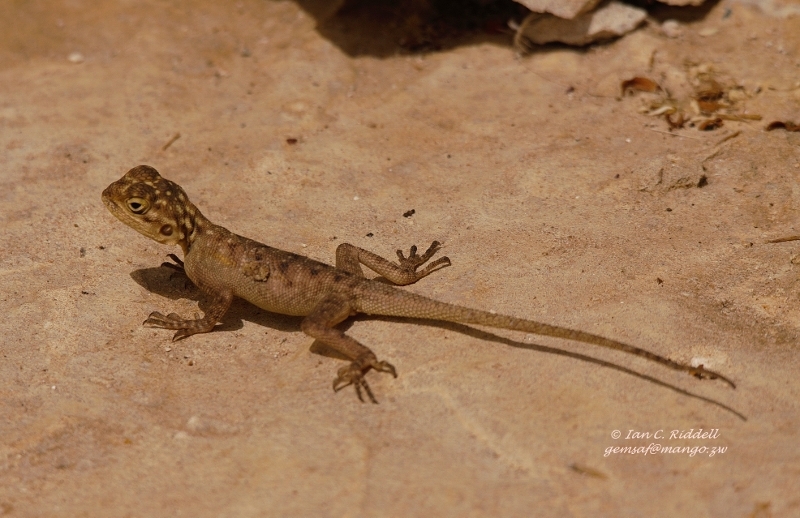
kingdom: Animalia
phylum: Chordata
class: Squamata
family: Agamidae
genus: Agama
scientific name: Agama agama
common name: Common agama
